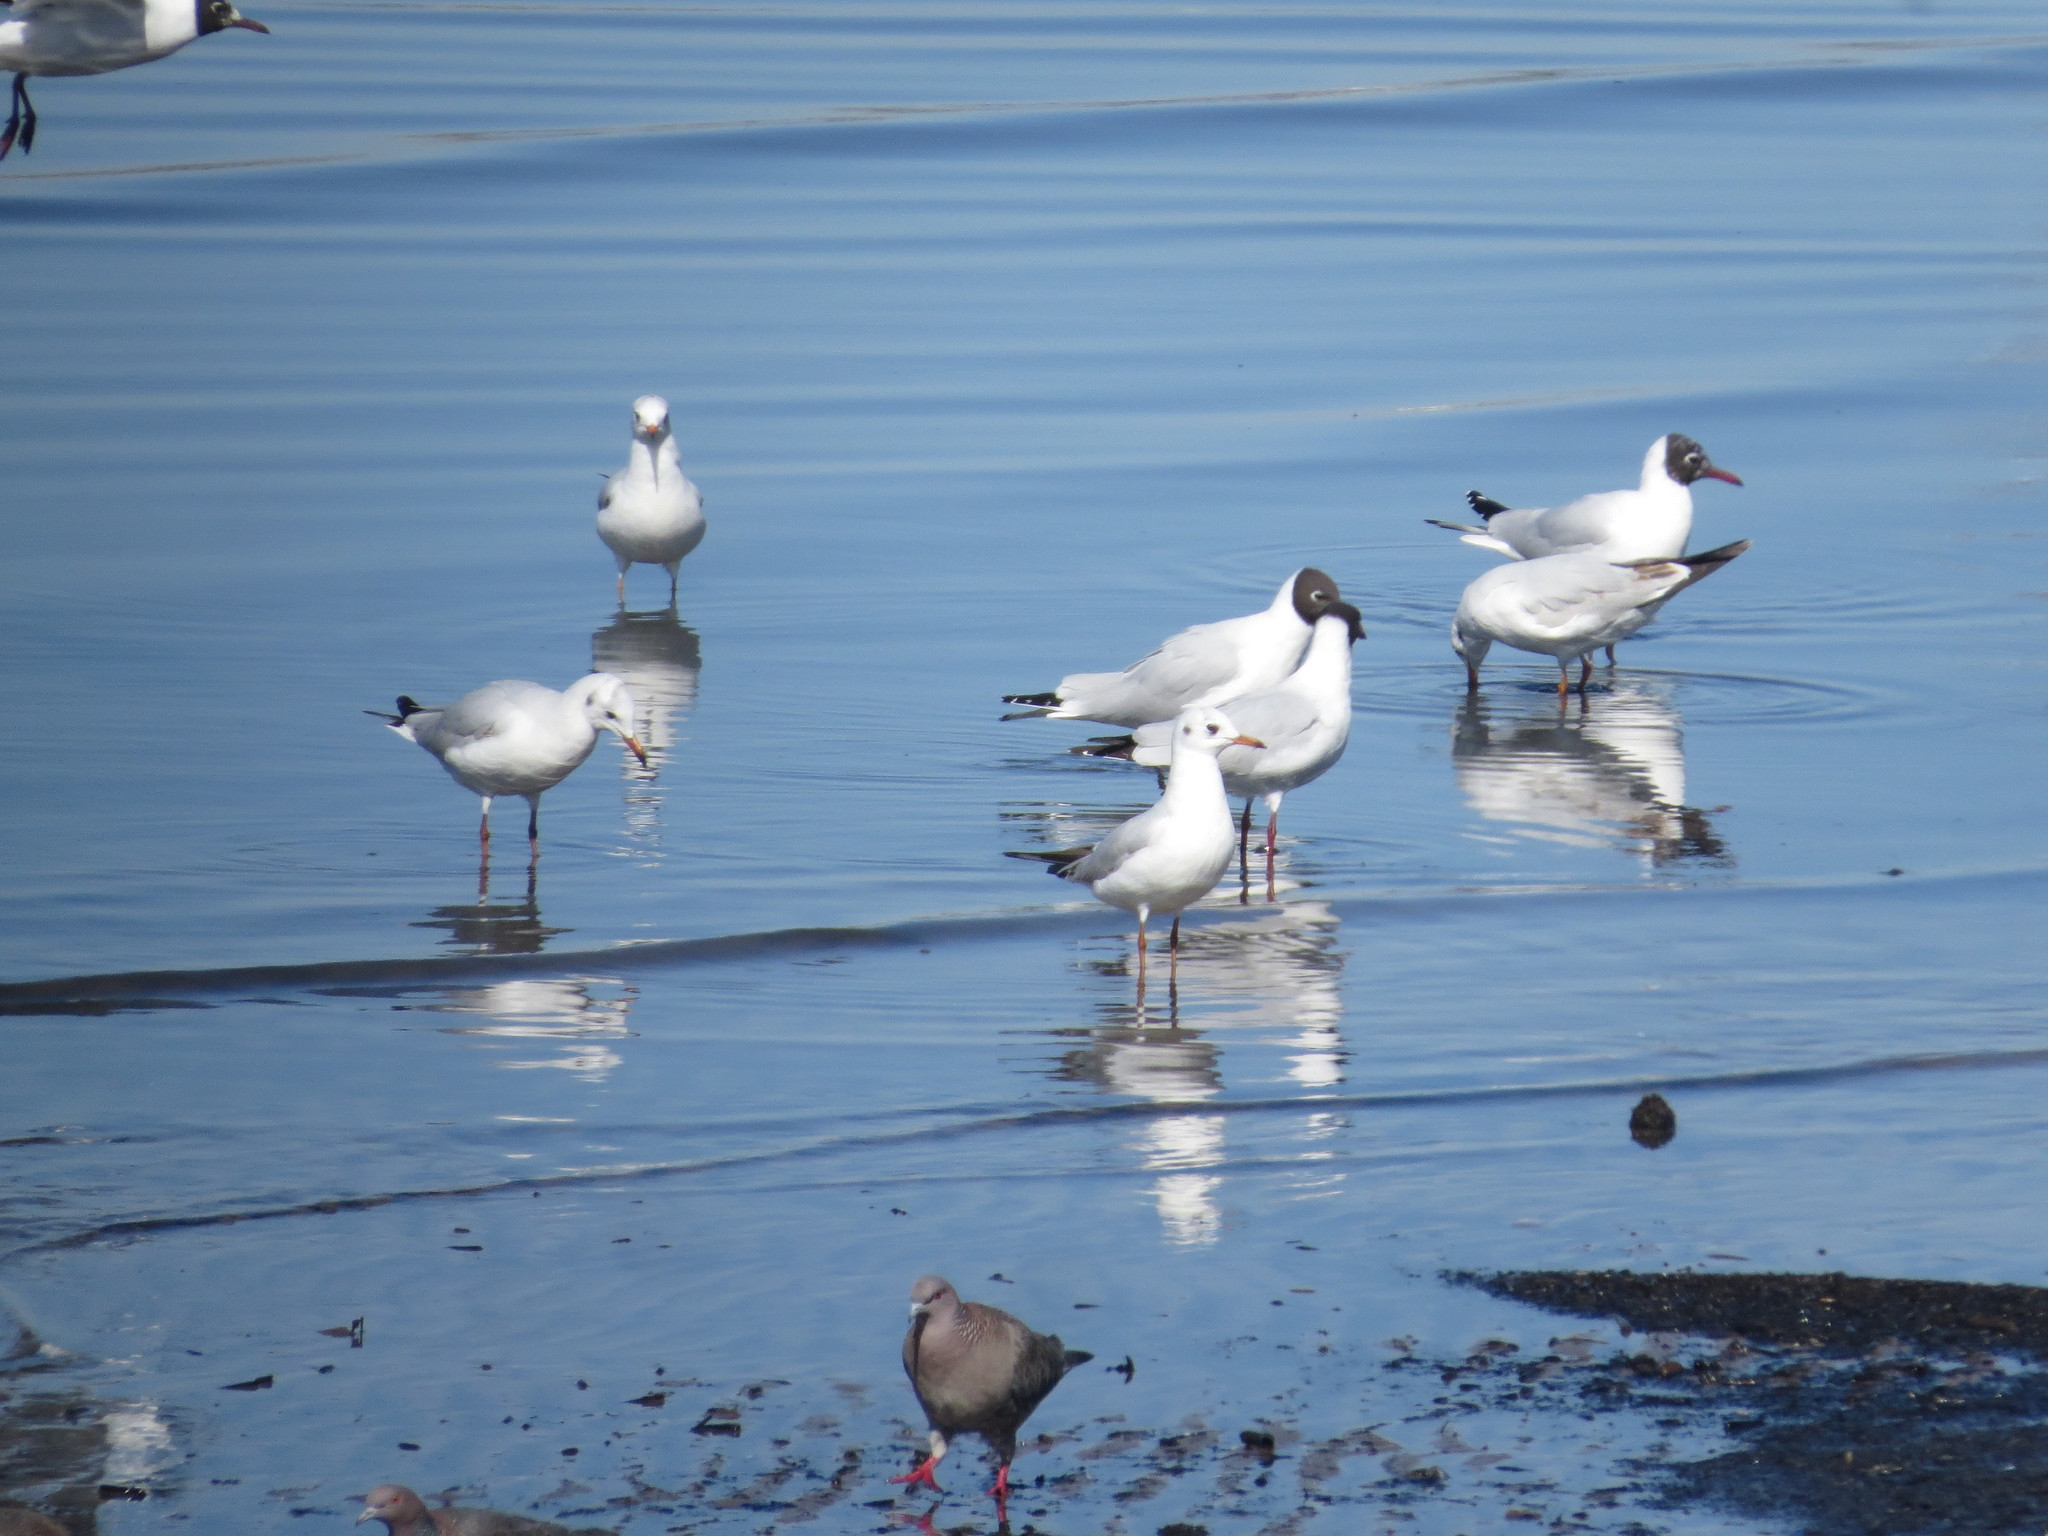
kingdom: Animalia
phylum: Chordata
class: Aves
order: Charadriiformes
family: Laridae
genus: Chroicocephalus
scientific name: Chroicocephalus maculipennis
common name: Brown-hooded gull
